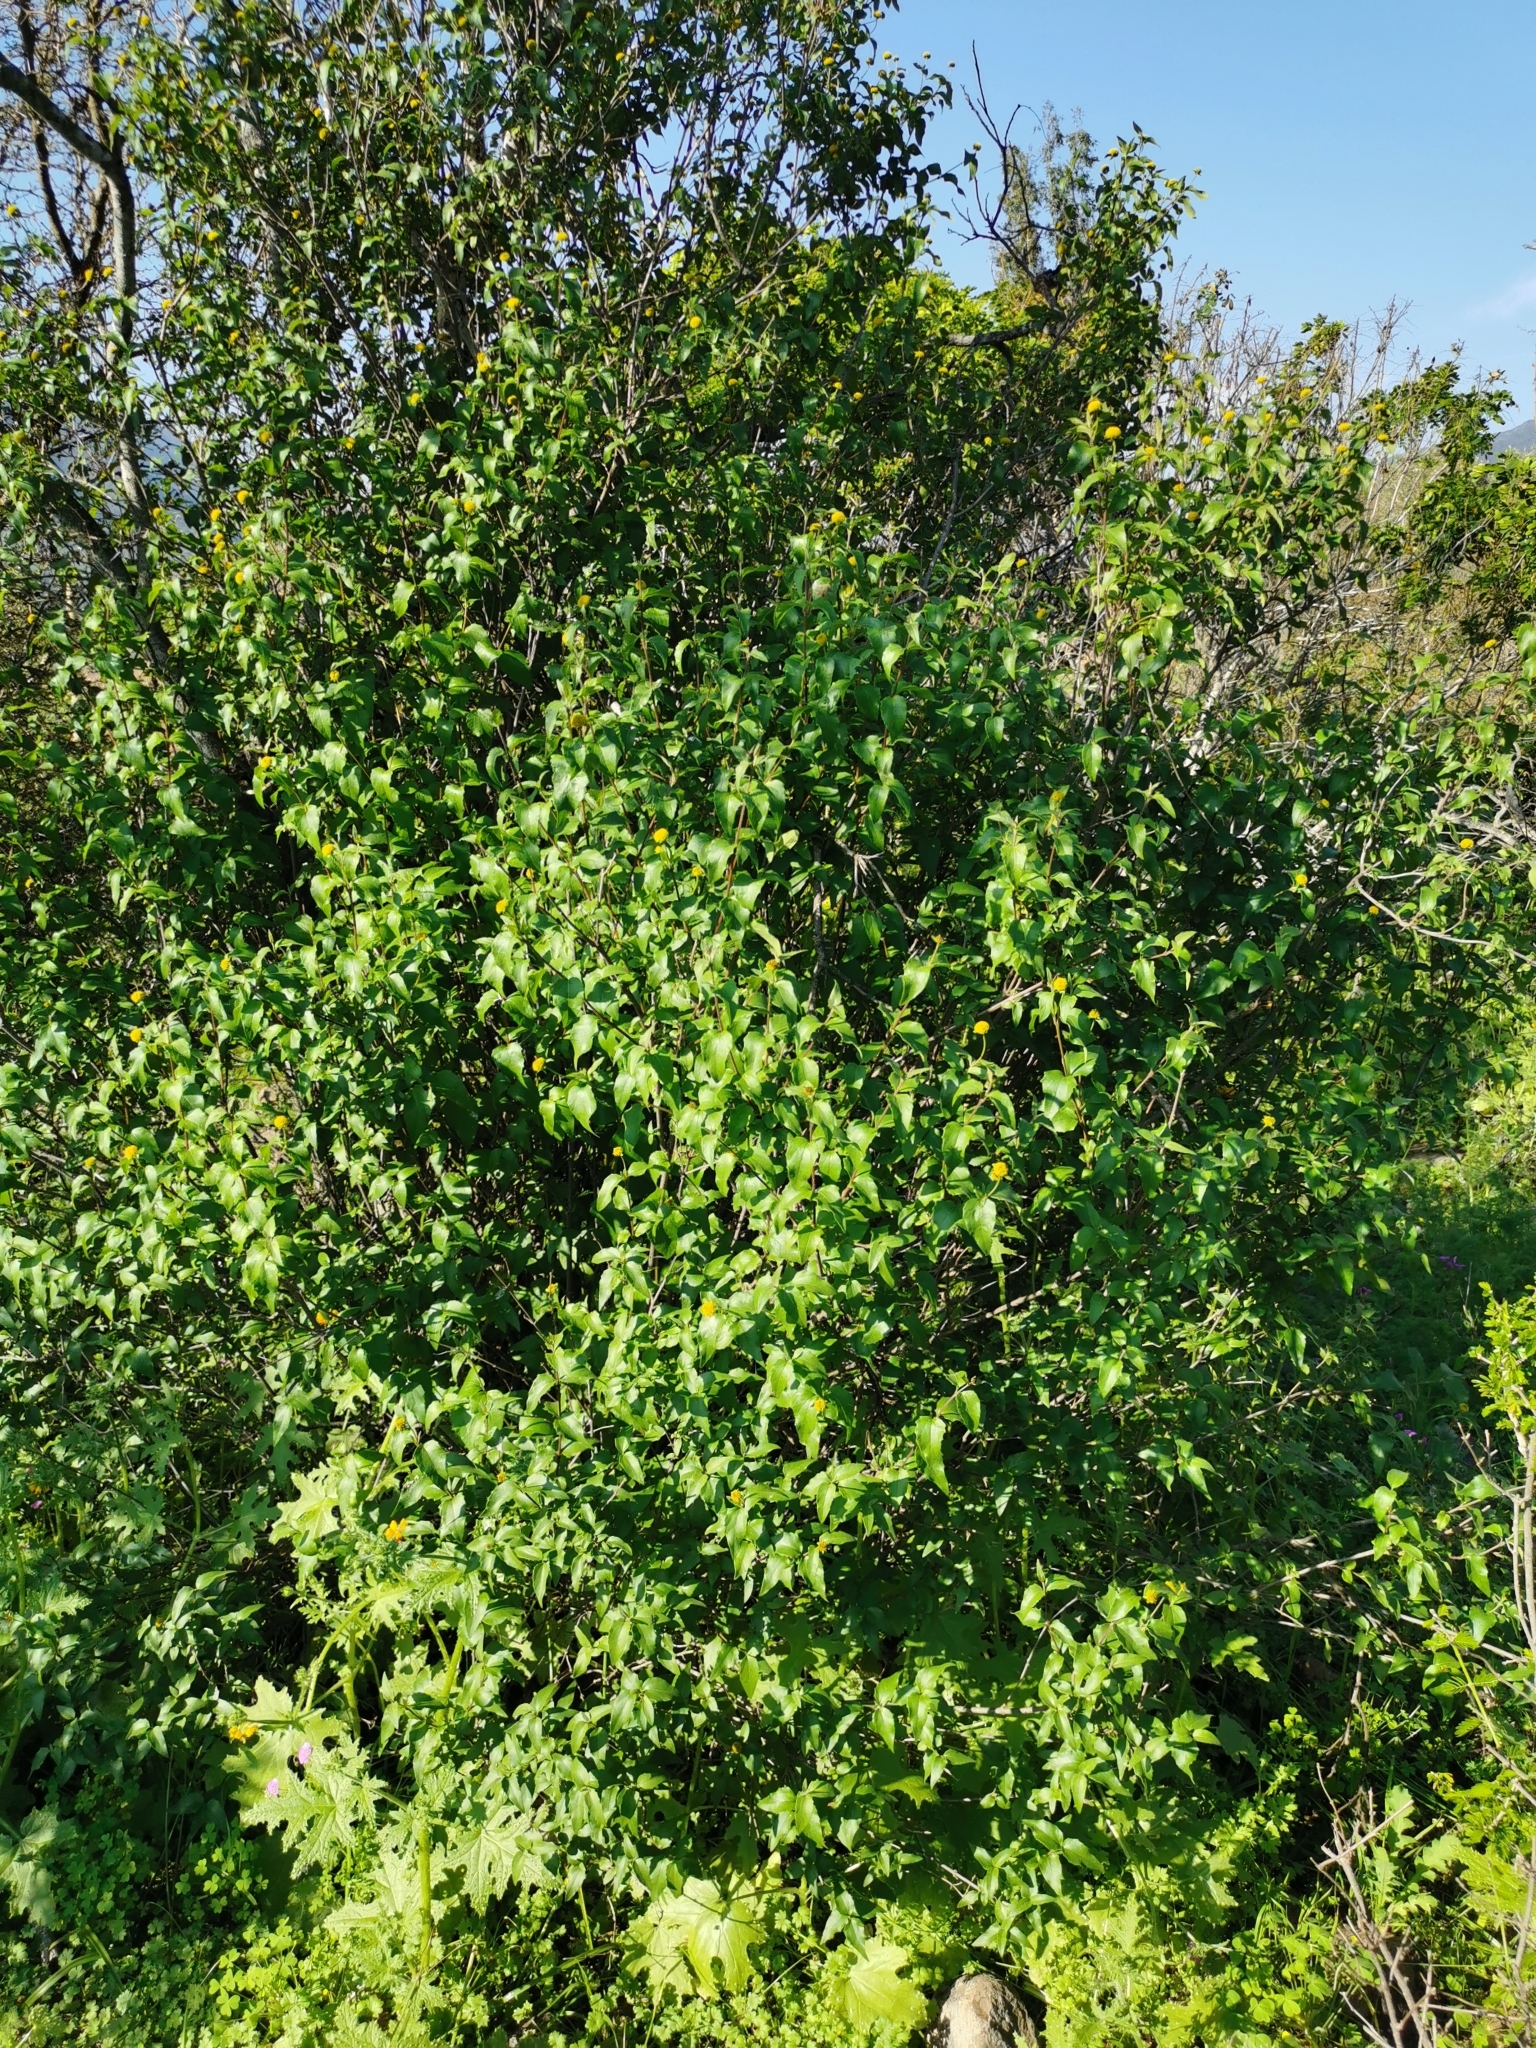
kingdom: Plantae
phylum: Tracheophyta
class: Magnoliopsida
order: Asterales
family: Asteraceae
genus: Podanthus
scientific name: Podanthus mitiqui
